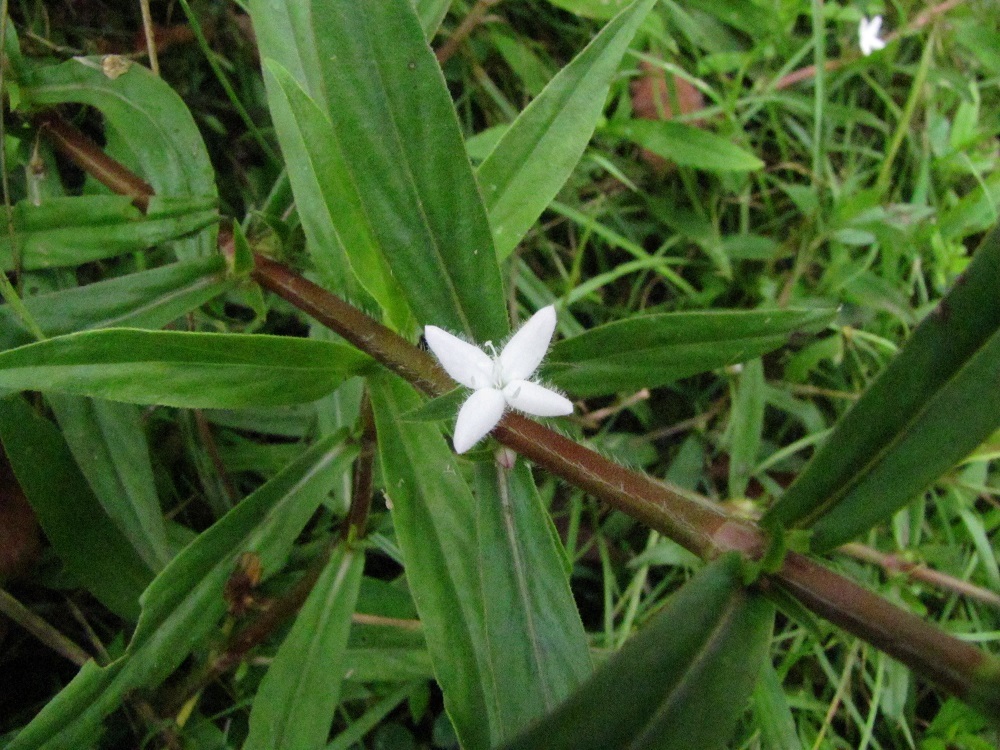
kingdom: Plantae
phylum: Tracheophyta
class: Magnoliopsida
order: Gentianales
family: Rubiaceae
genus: Diodia
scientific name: Diodia virginiana
